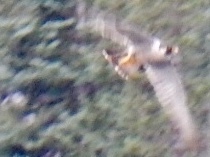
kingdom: Animalia
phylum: Chordata
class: Aves
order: Falconiformes
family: Falconidae
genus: Falco
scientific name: Falco peregrinus
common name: Peregrine falcon
